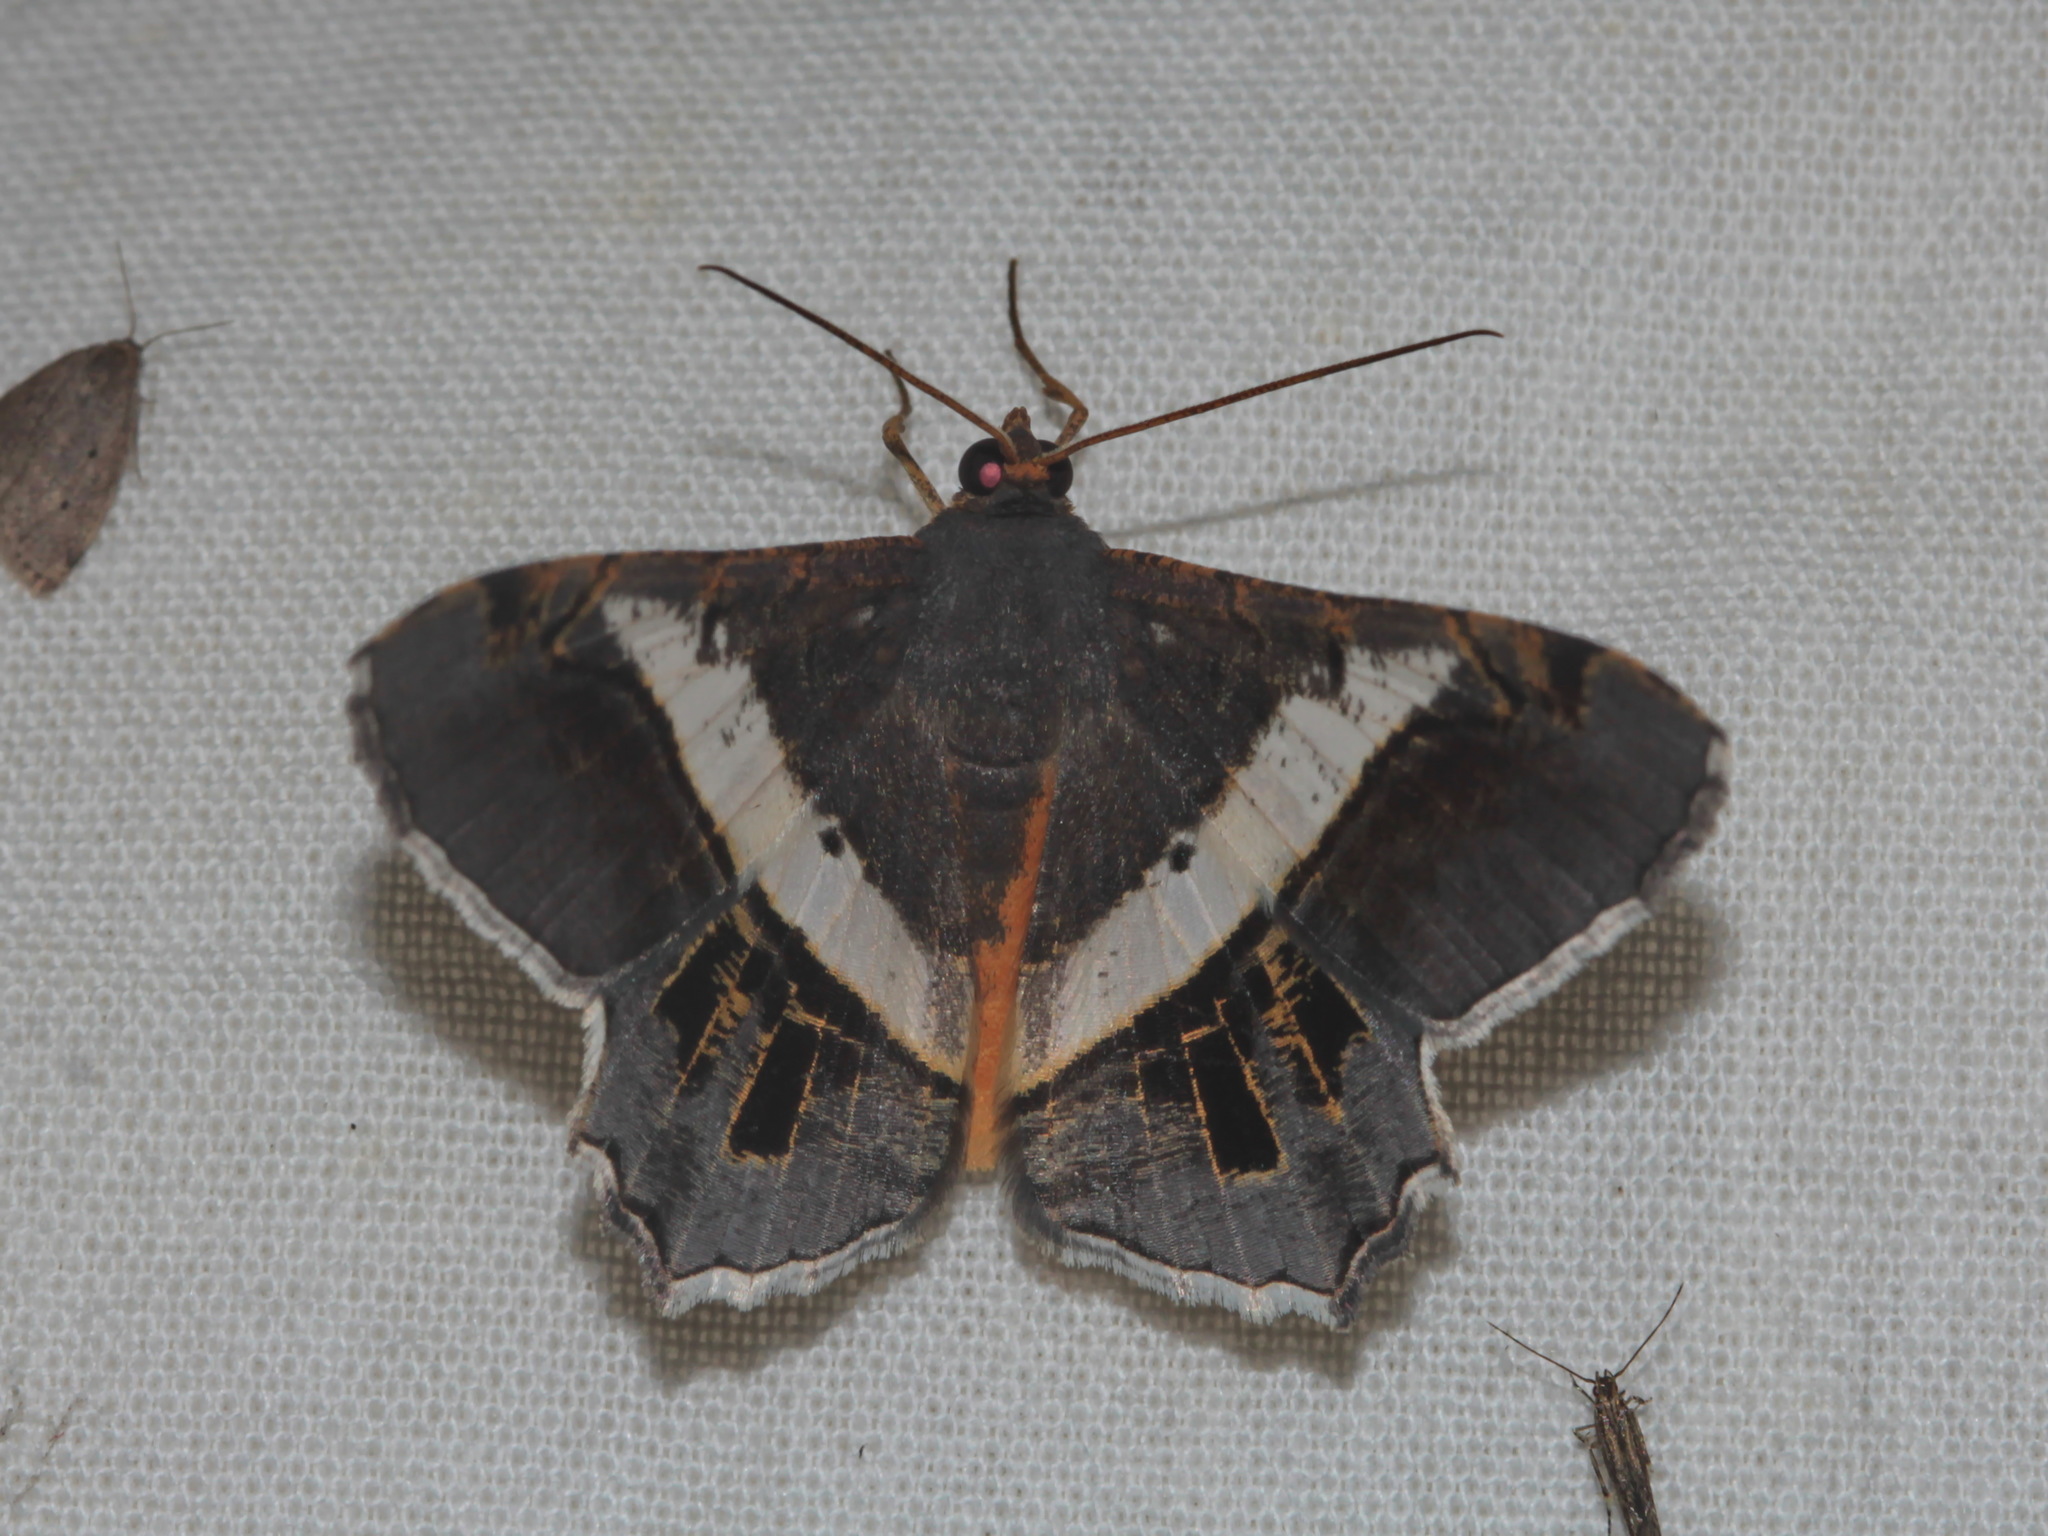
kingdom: Animalia
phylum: Arthropoda
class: Insecta
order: Lepidoptera
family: Geometridae
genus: Chiasmia
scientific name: Chiasmia eleonora
